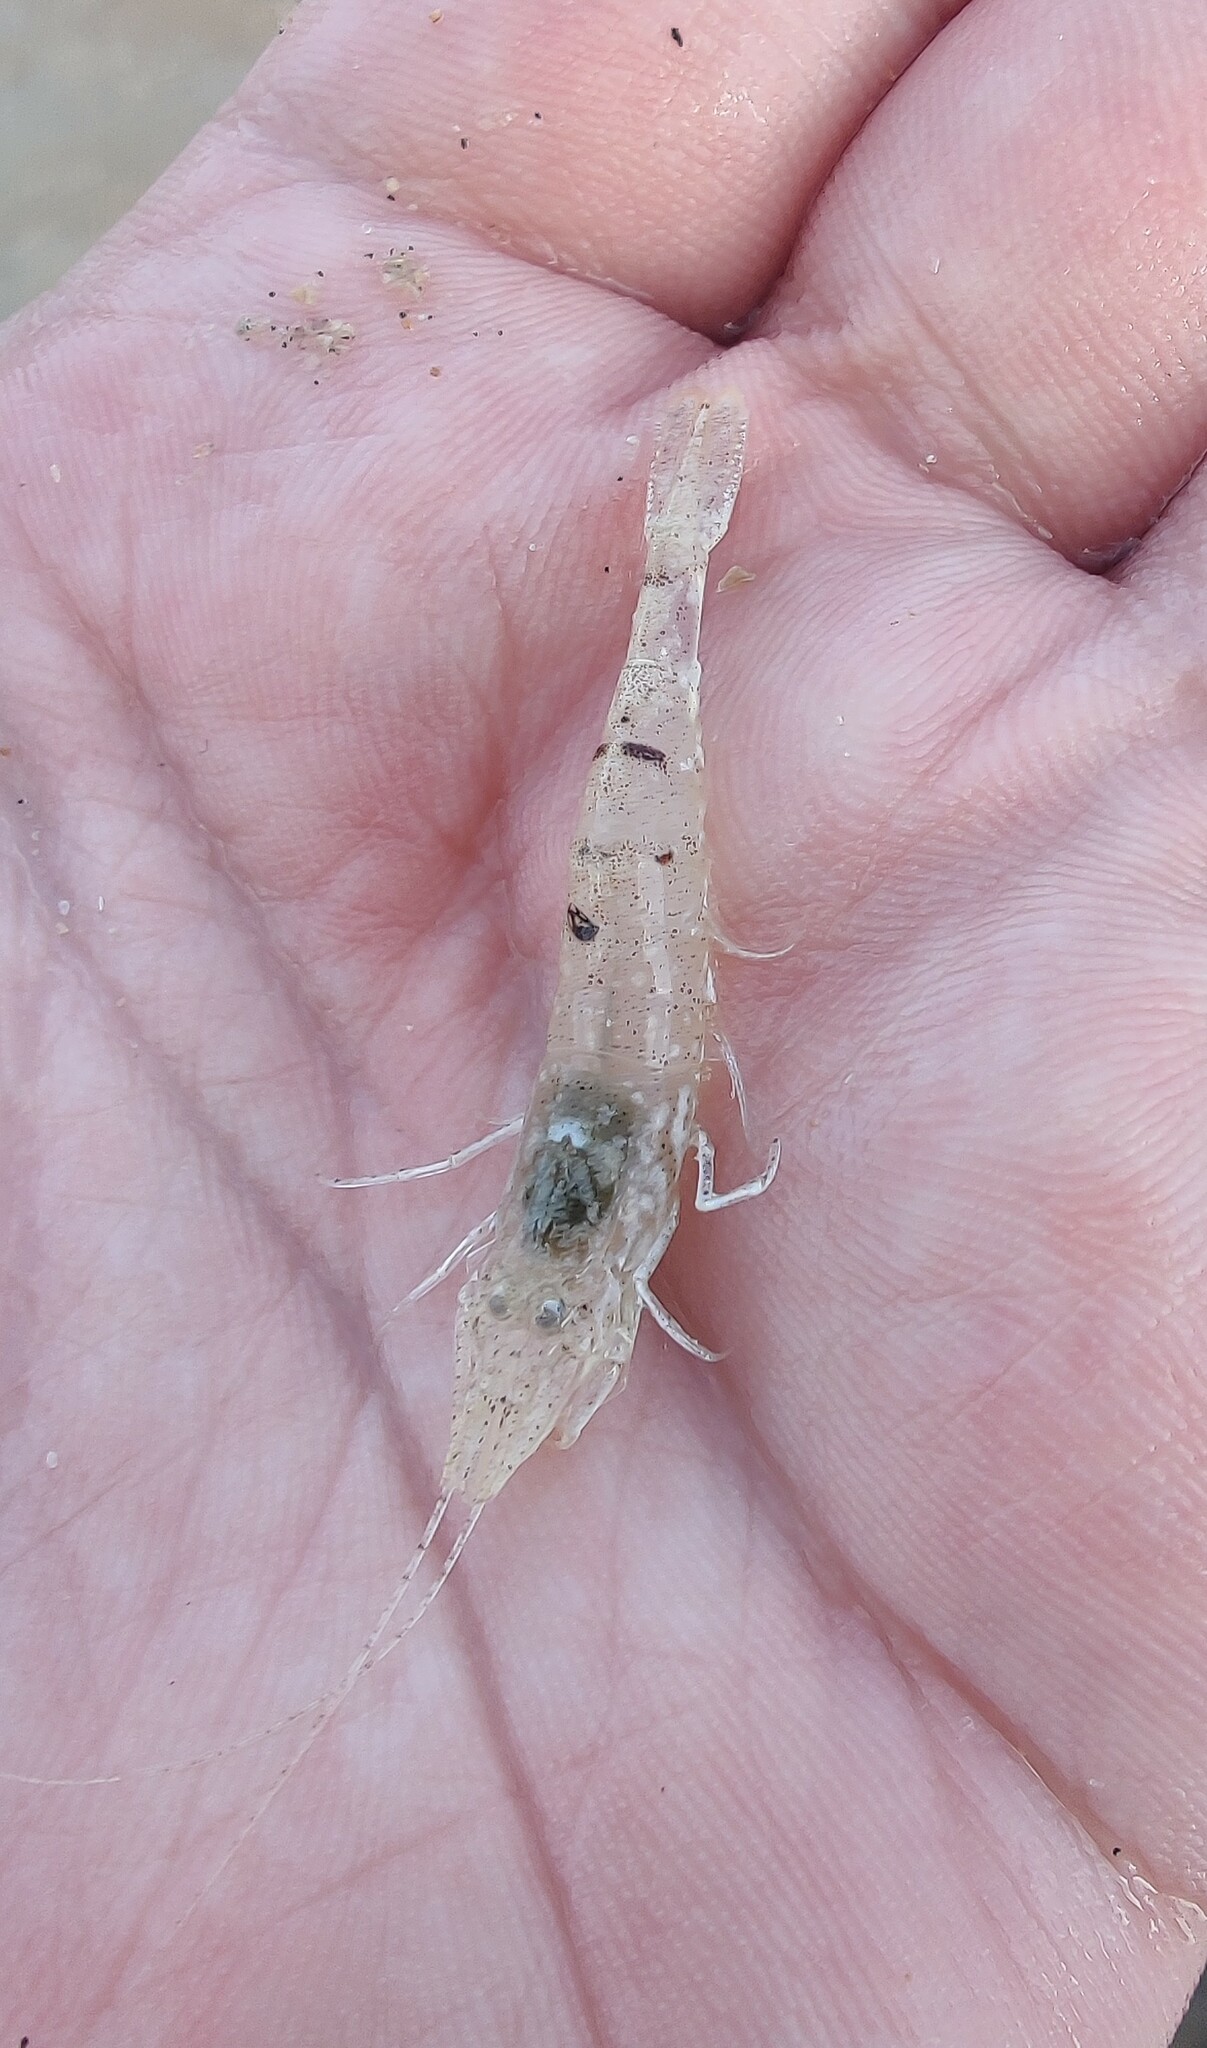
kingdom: Animalia
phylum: Arthropoda
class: Malacostraca
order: Decapoda
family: Crangonidae
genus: Crangon
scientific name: Crangon crangon
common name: Brown shrimp
